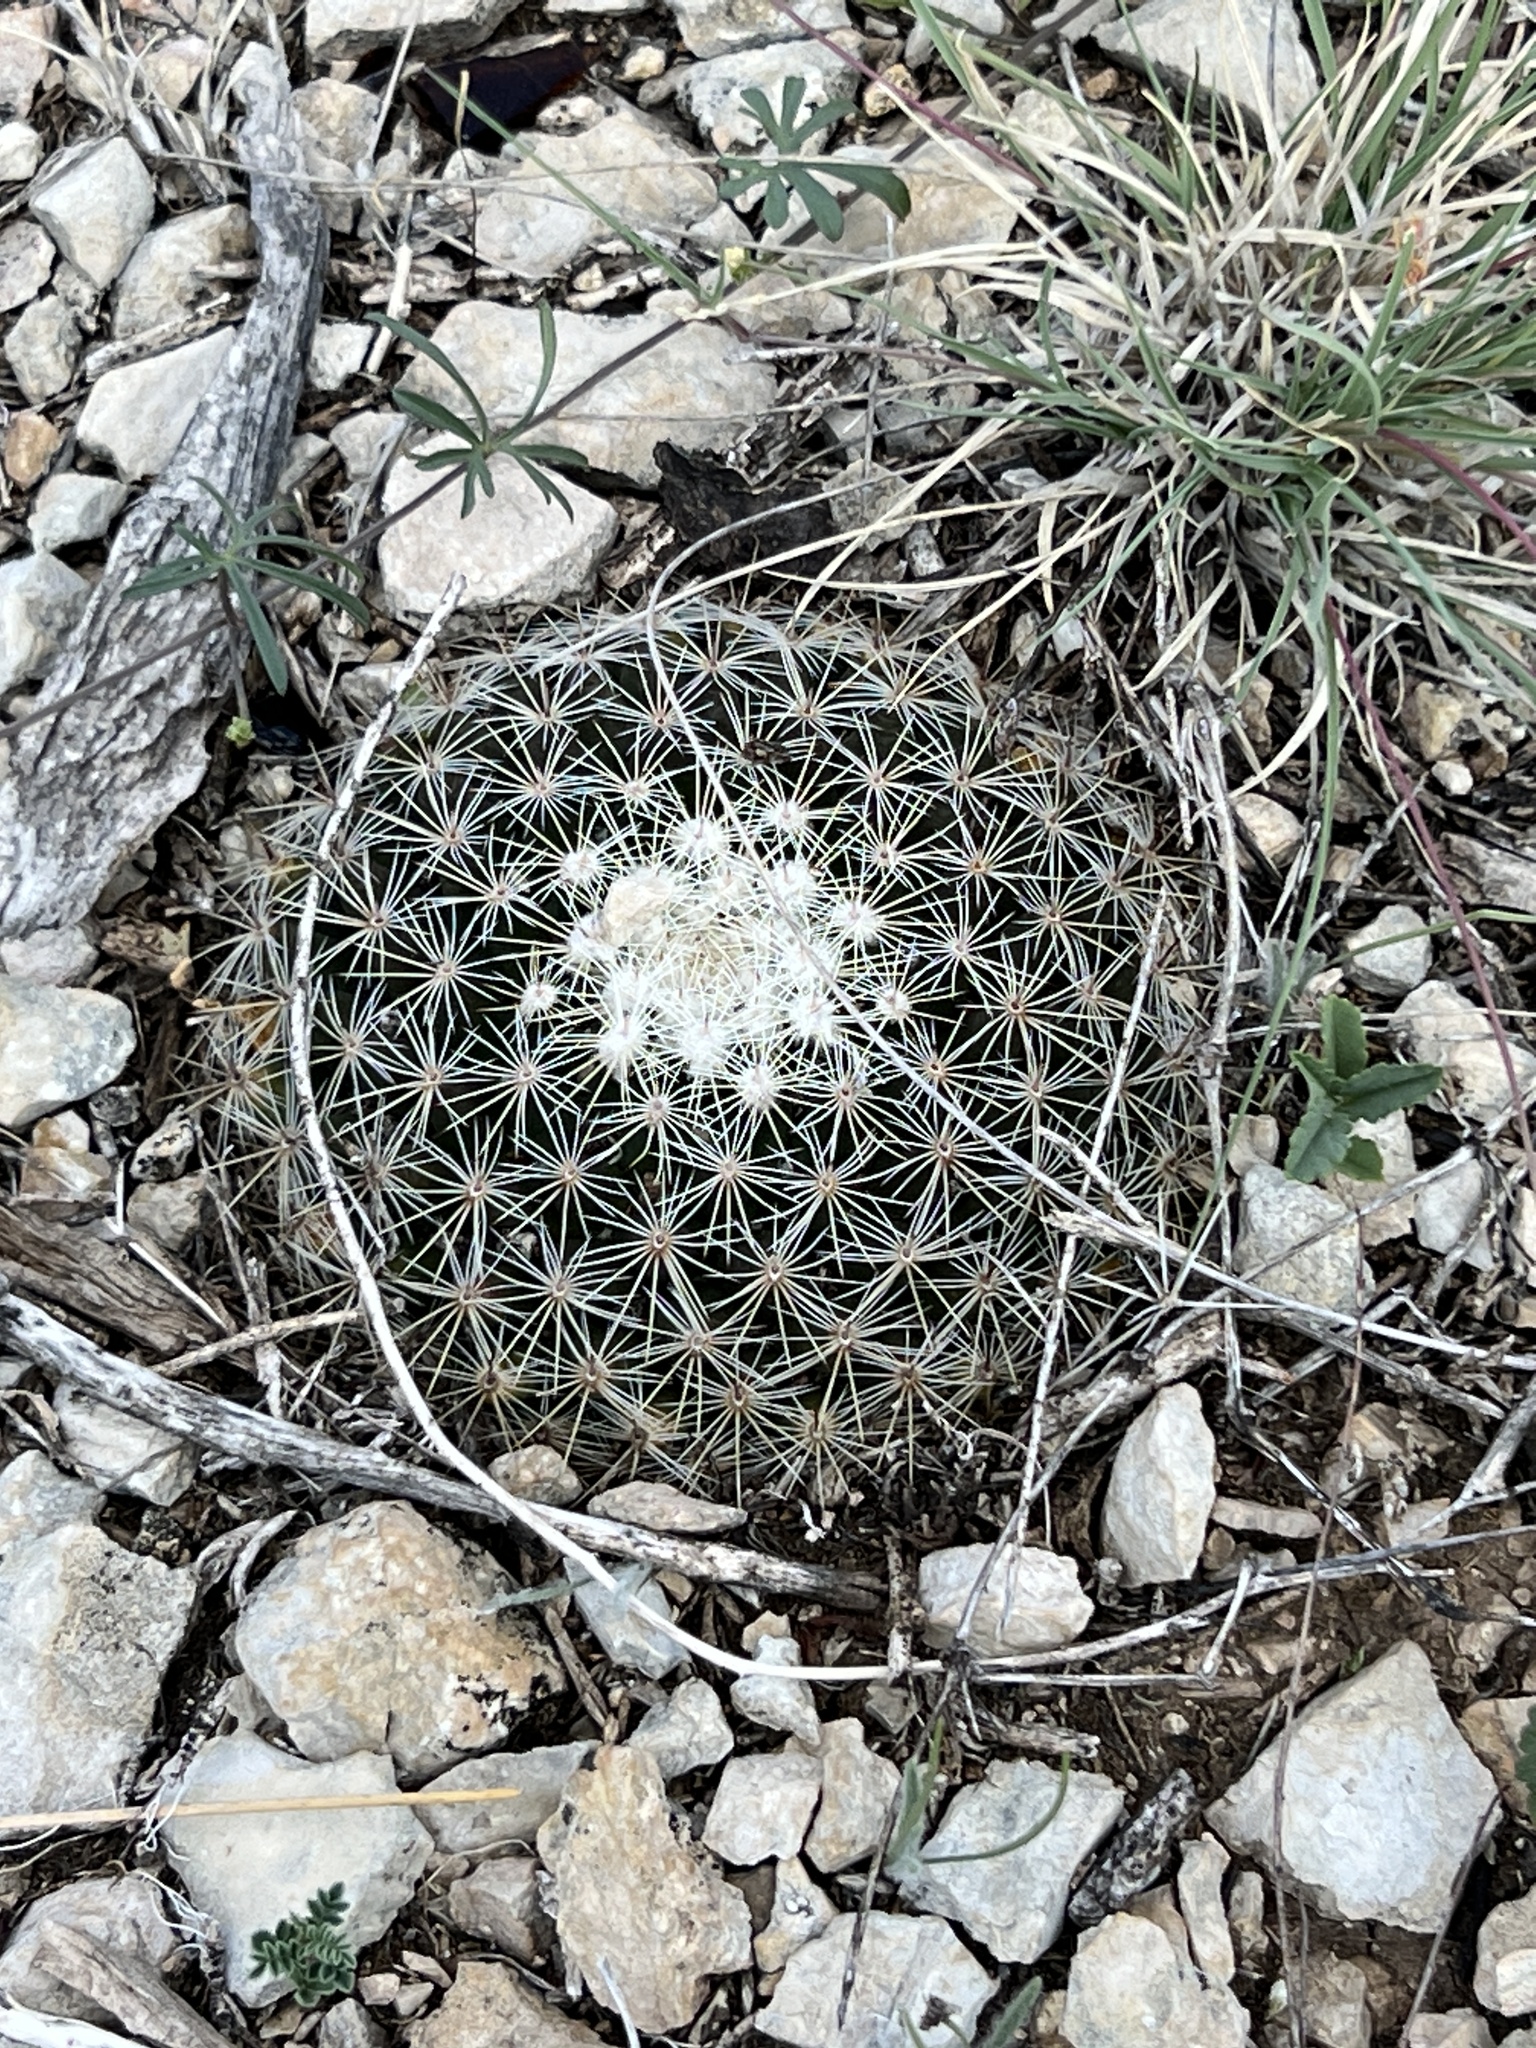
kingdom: Plantae
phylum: Tracheophyta
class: Magnoliopsida
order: Caryophyllales
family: Cactaceae
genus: Mammillaria
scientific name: Mammillaria heyderi
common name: Little nipple cactus
